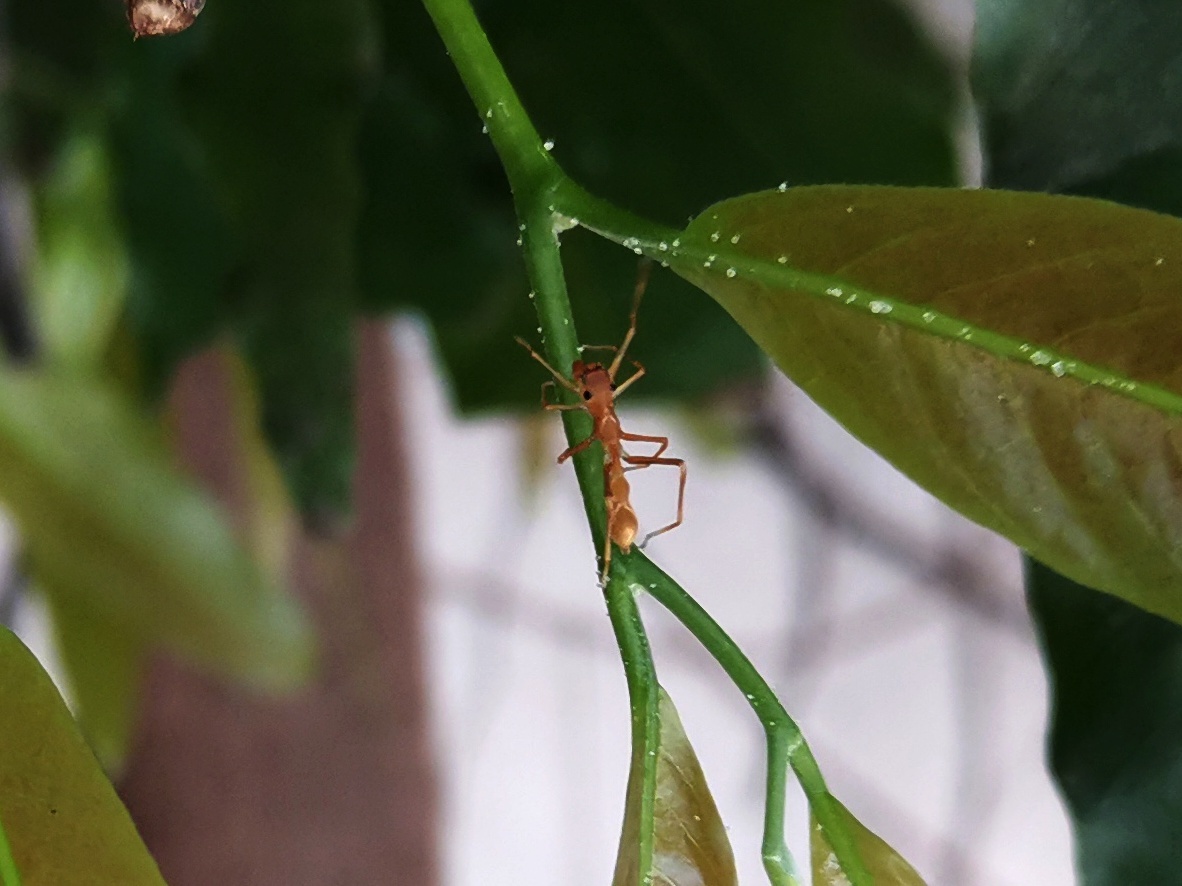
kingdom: Animalia
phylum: Arthropoda
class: Arachnida
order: Araneae
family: Salticidae
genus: Myrmaplata
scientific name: Myrmaplata plataleoides
